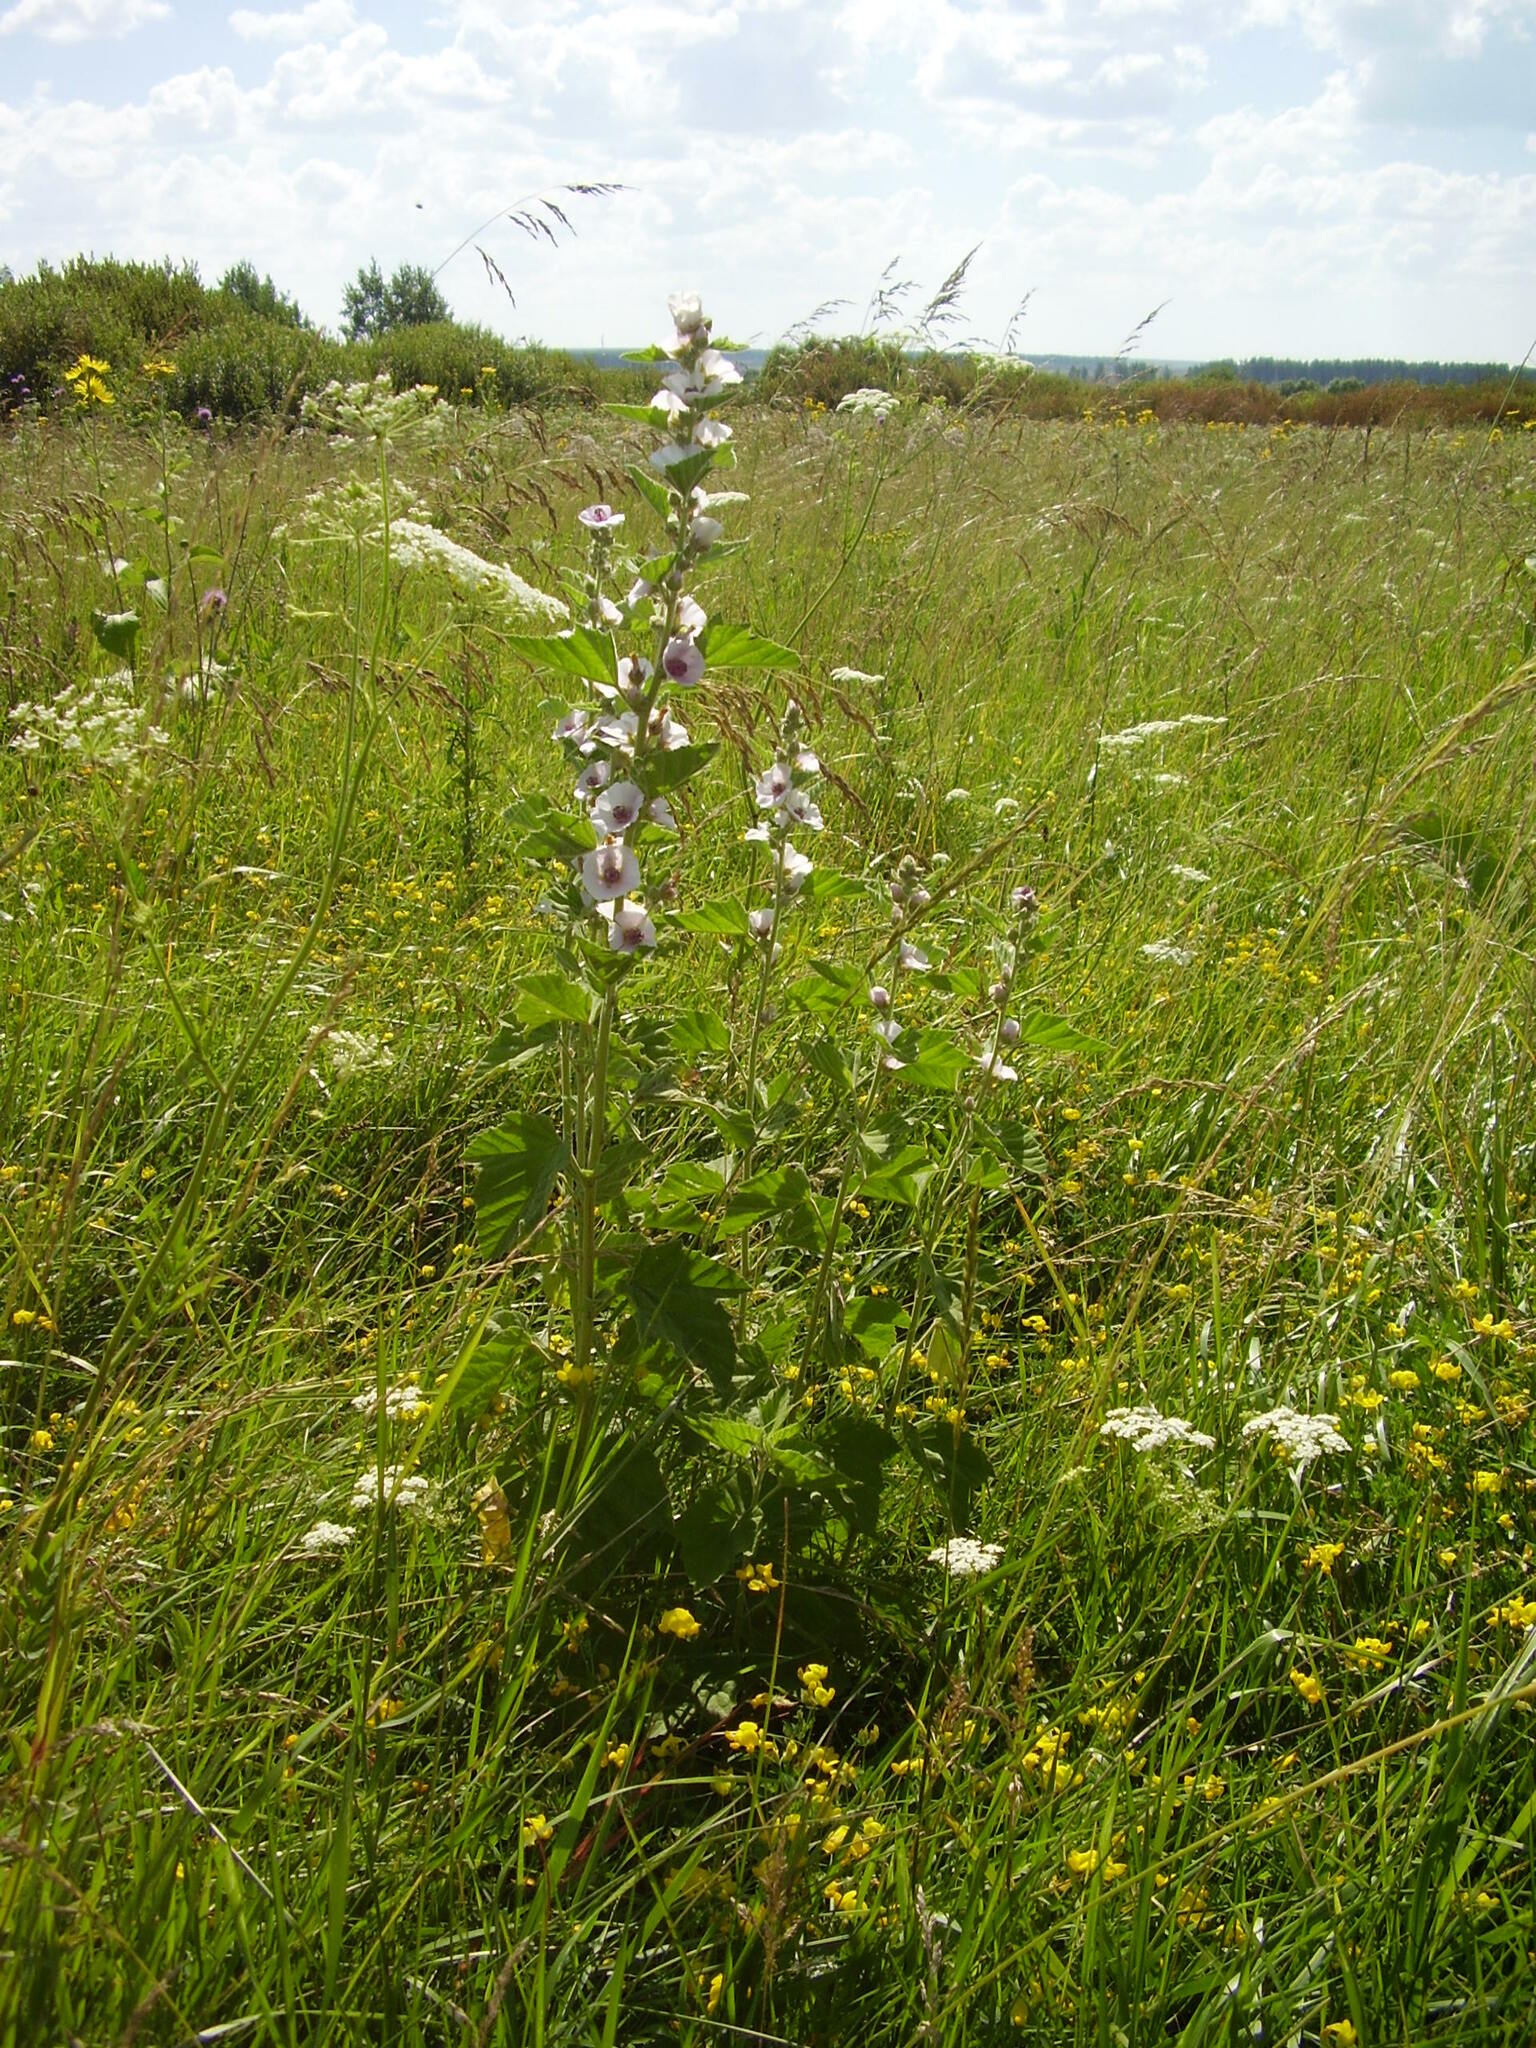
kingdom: Plantae
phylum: Tracheophyta
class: Magnoliopsida
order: Malvales
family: Malvaceae
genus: Althaea
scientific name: Althaea officinalis
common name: Marsh-mallow
